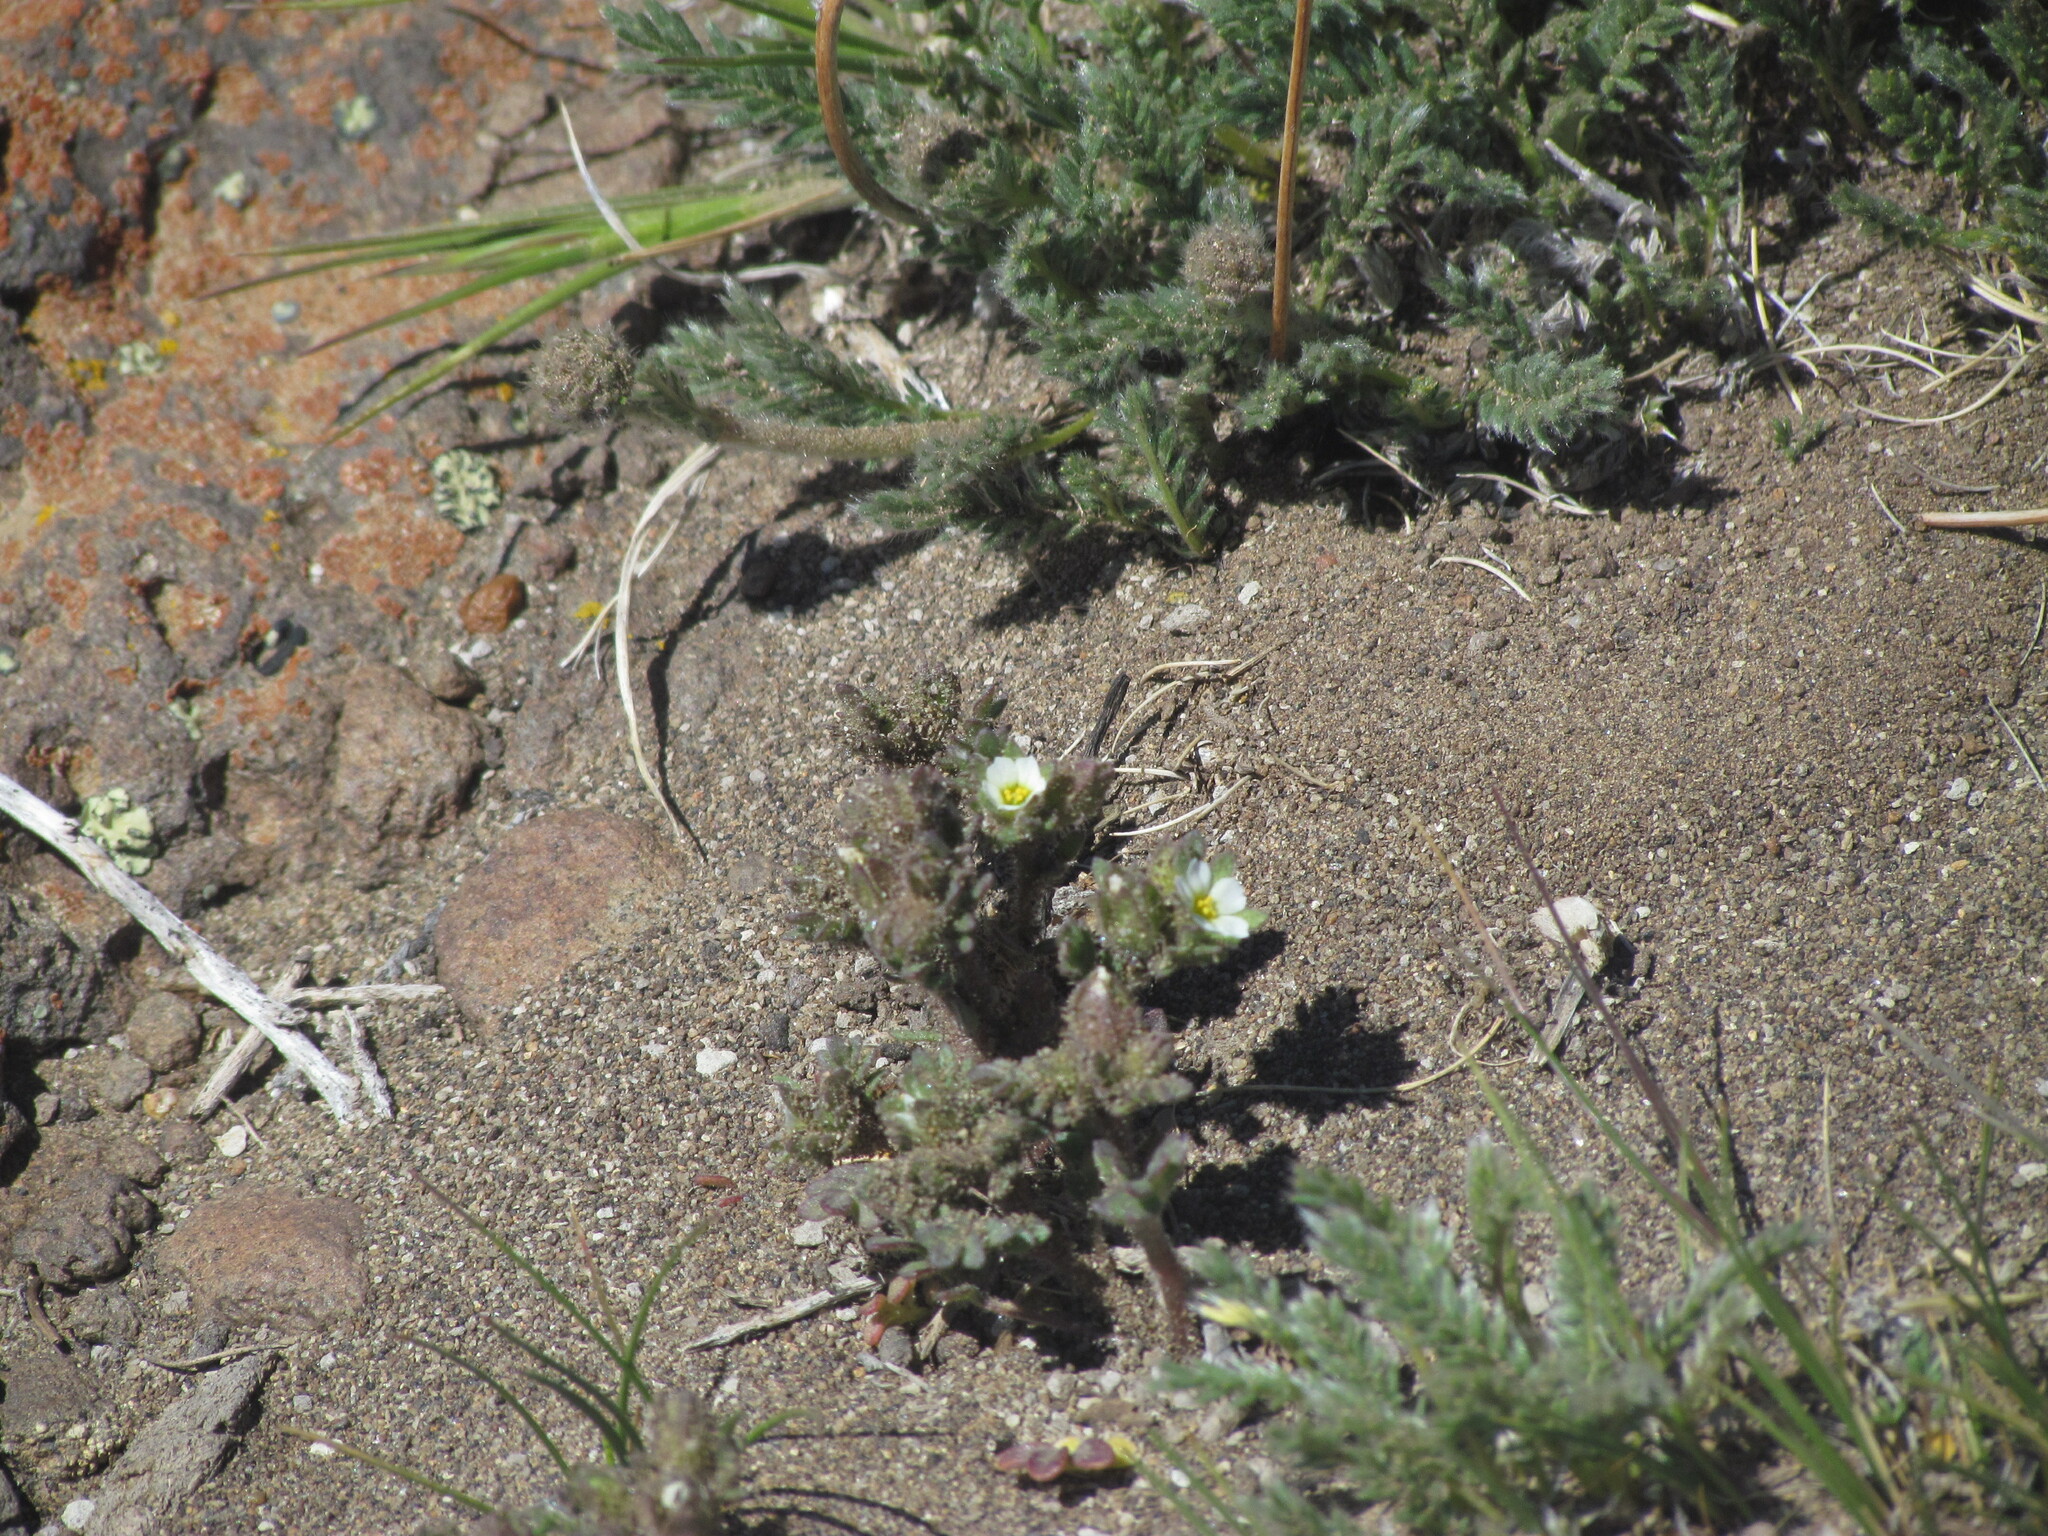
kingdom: Plantae
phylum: Tracheophyta
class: Magnoliopsida
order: Ericales
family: Polemoniaceae
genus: Polemonium
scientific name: Polemonium micranthum
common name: Annual jacob's-ladder
